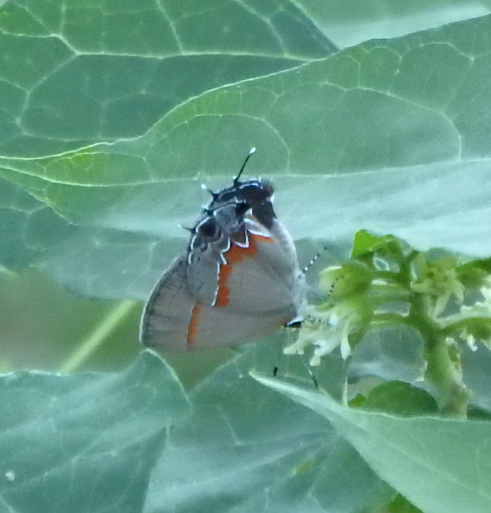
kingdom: Animalia
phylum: Arthropoda
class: Insecta
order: Lepidoptera
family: Lycaenidae
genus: Calycopis
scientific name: Calycopis cecrops
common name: Red-banded hairstreak
